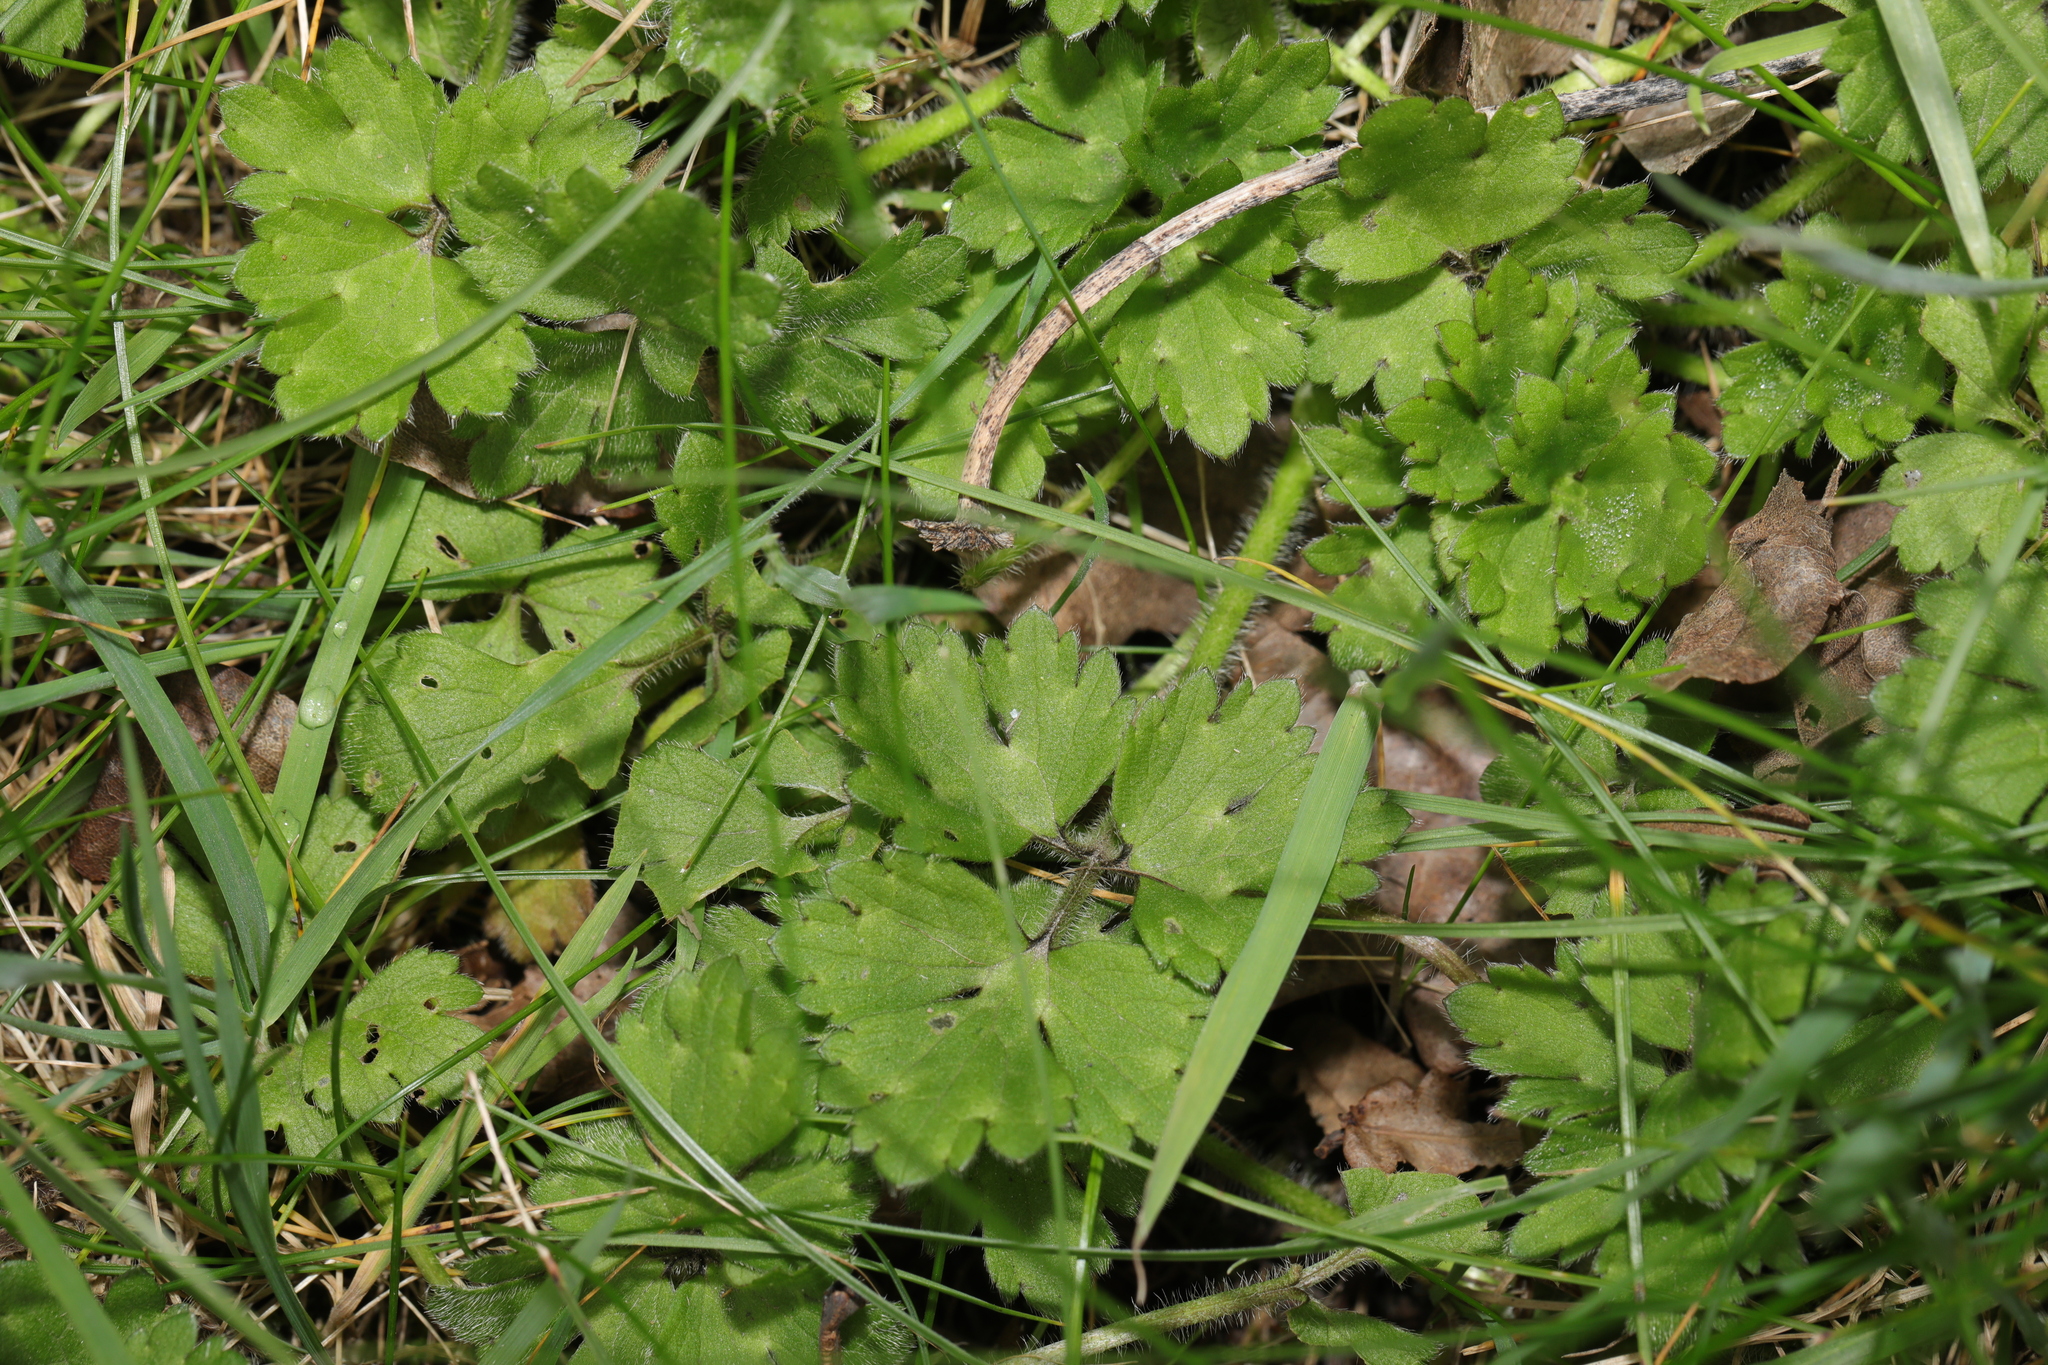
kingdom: Plantae
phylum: Tracheophyta
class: Magnoliopsida
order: Ranunculales
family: Ranunculaceae
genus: Ranunculus
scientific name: Ranunculus repens
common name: Creeping buttercup
